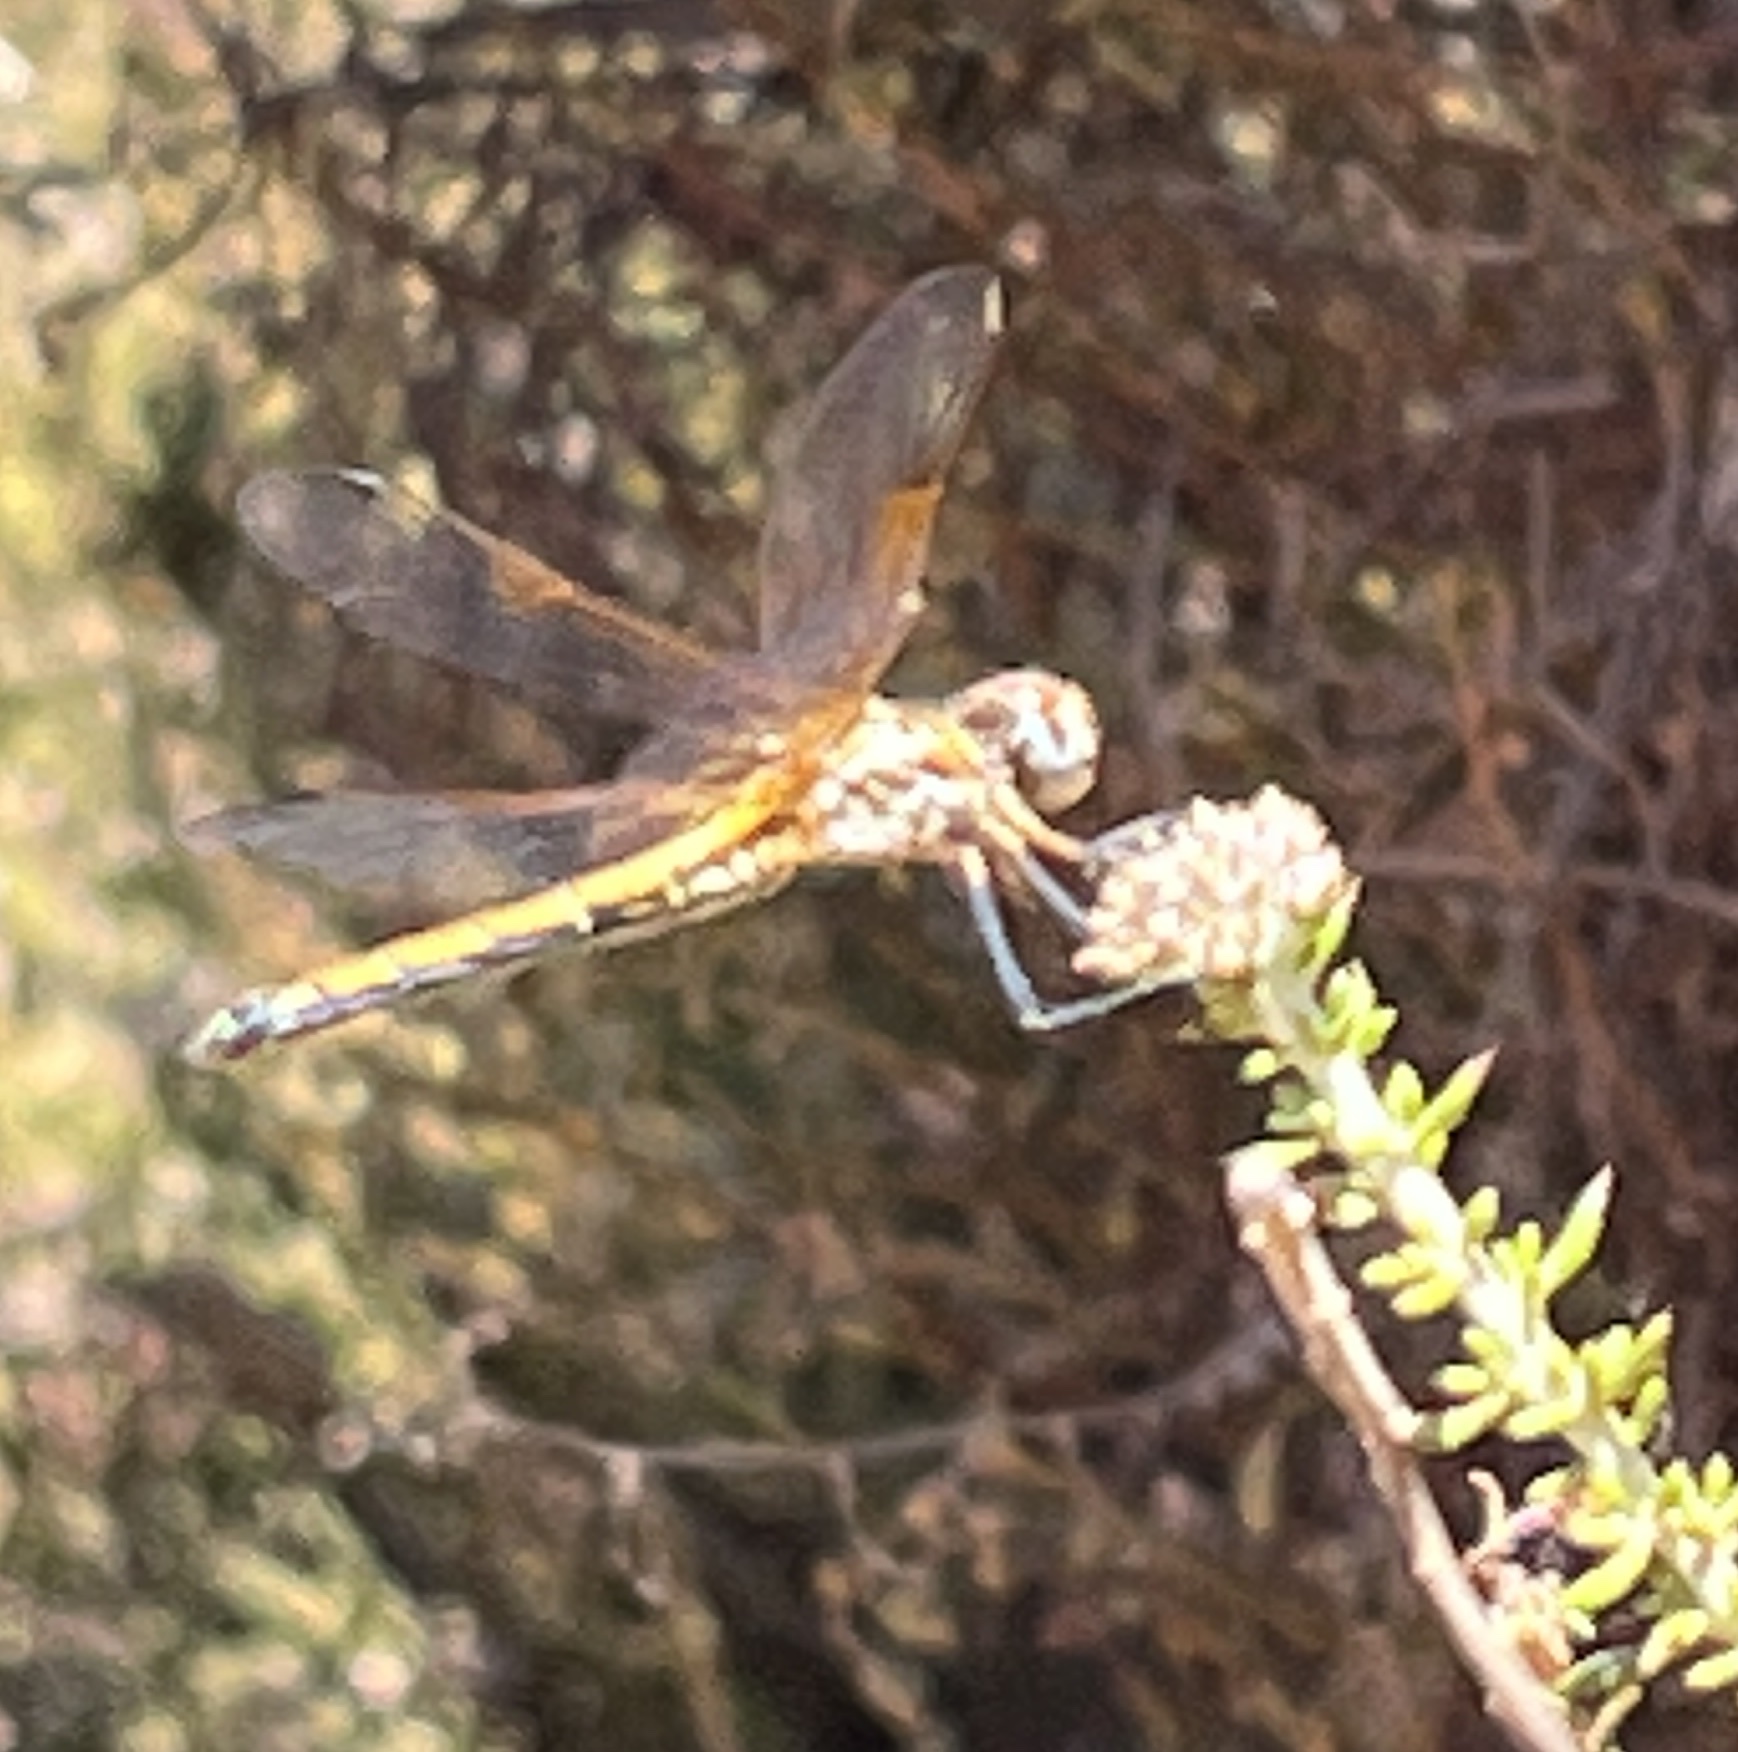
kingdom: Animalia
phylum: Arthropoda
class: Insecta
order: Odonata
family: Libellulidae
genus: Trithemis
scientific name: Trithemis arteriosa
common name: Red-veined dropwing
